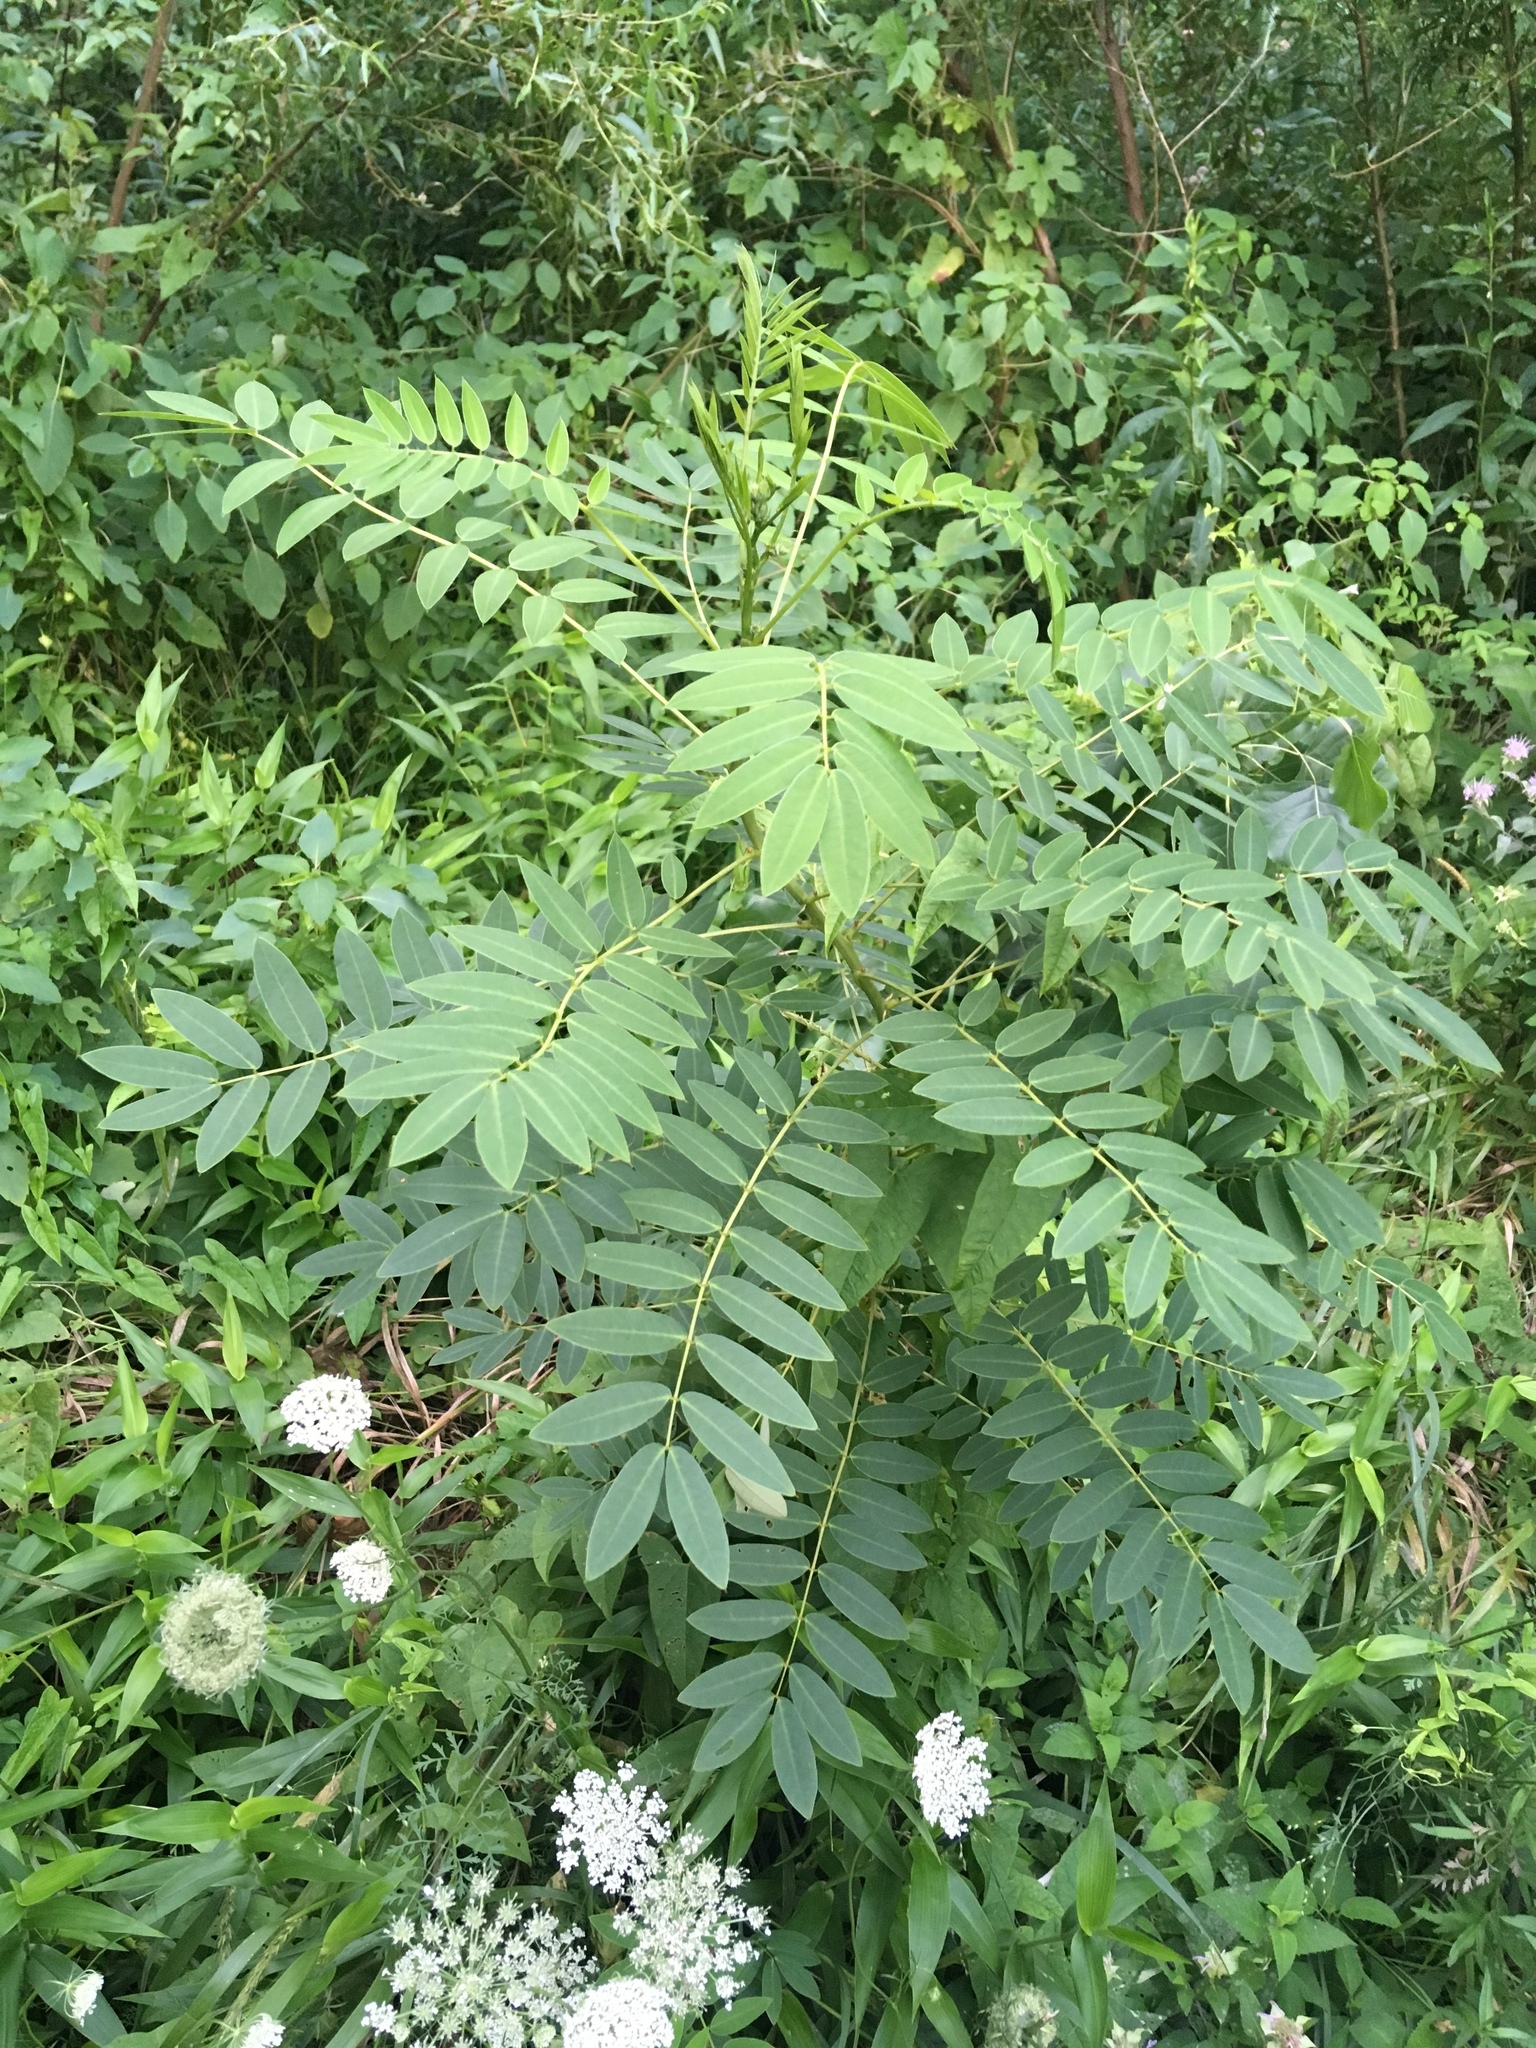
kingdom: Plantae
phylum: Tracheophyta
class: Magnoliopsida
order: Fabales
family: Fabaceae
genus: Senna
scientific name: Senna hebecarpa
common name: Wild senna
